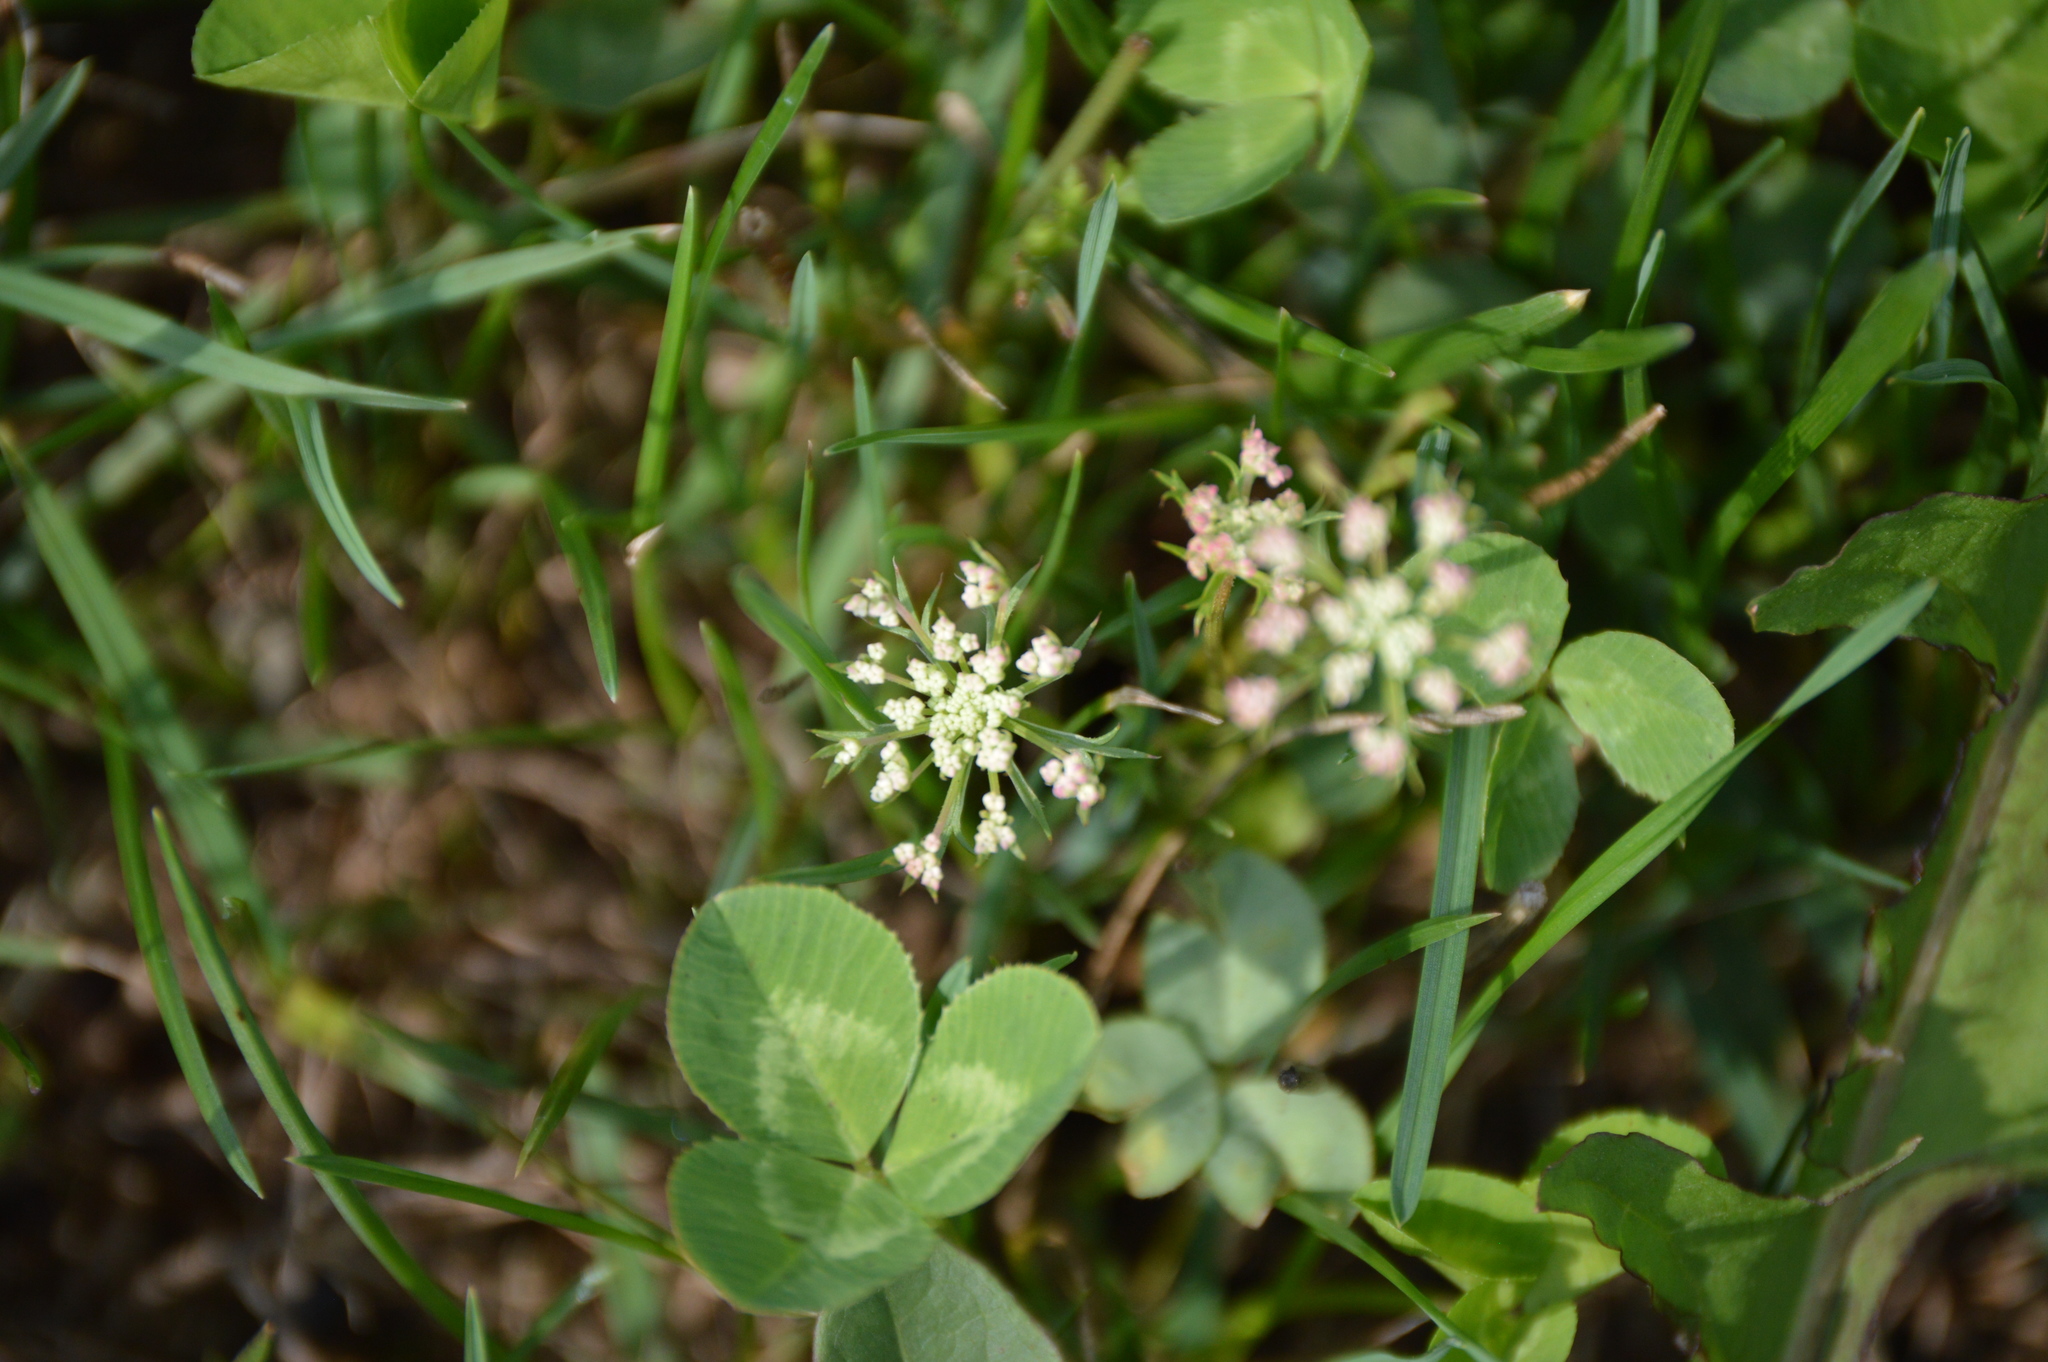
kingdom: Plantae
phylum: Tracheophyta
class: Magnoliopsida
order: Apiales
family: Apiaceae
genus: Daucus
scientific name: Daucus carota
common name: Wild carrot
